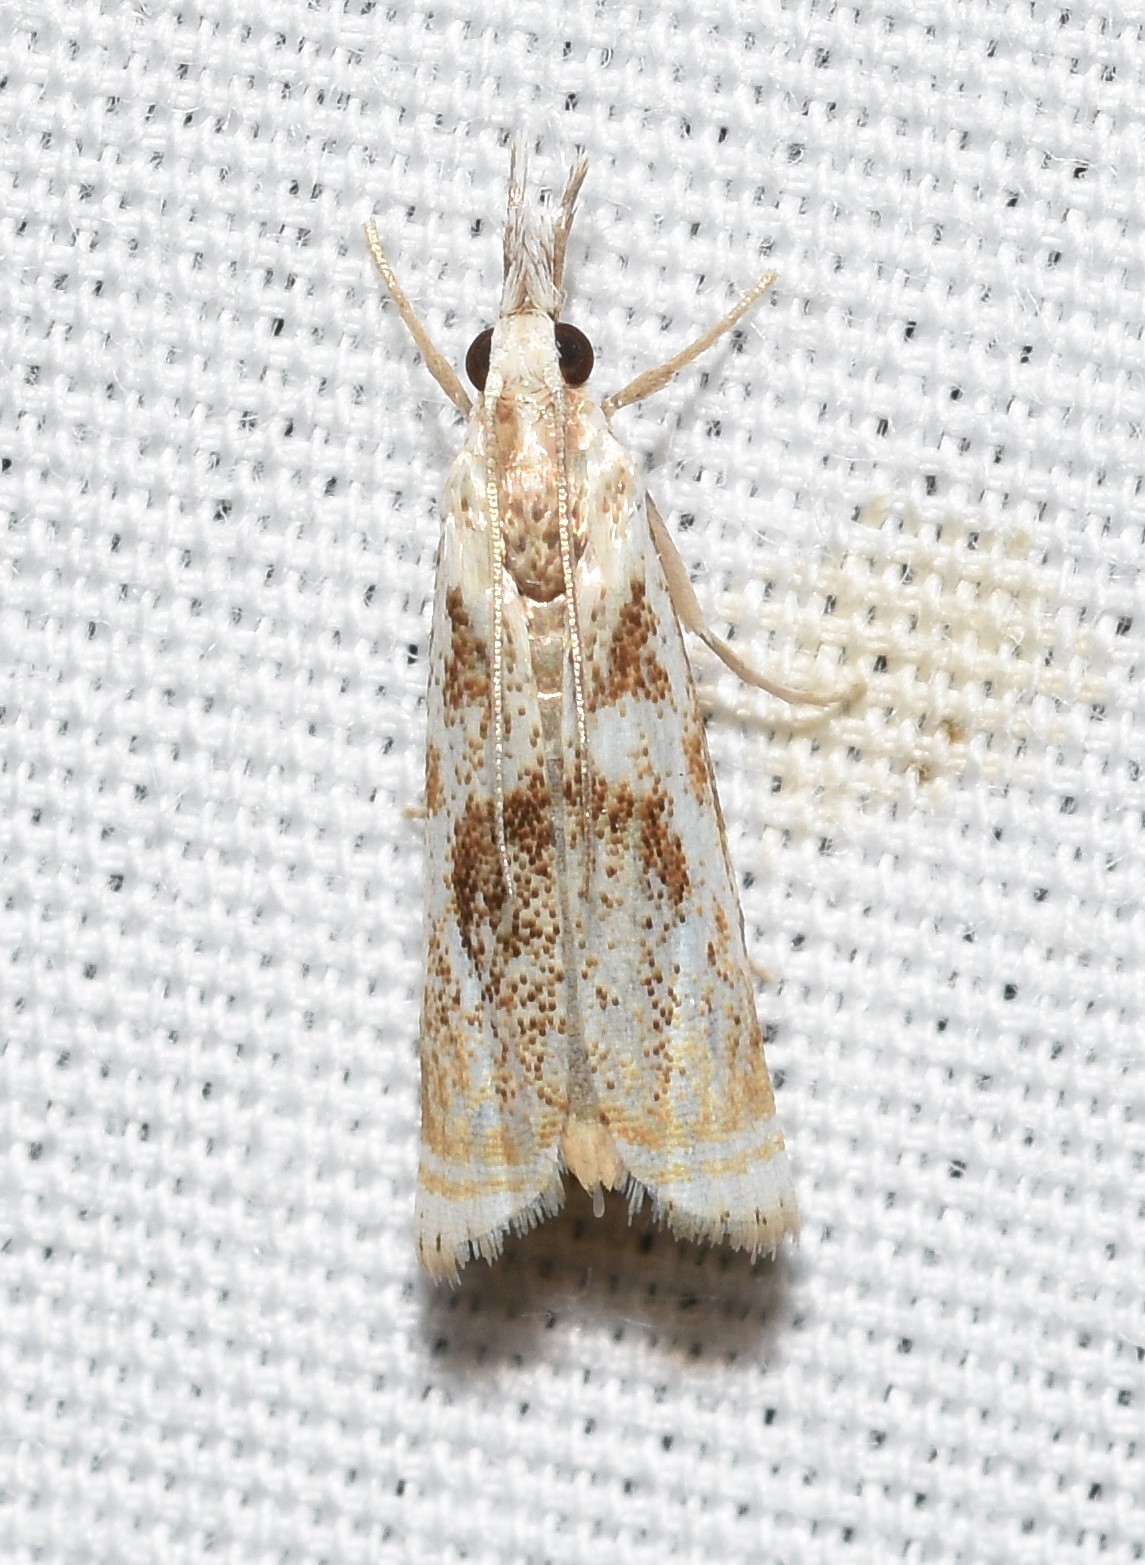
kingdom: Animalia
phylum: Arthropoda
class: Insecta
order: Lepidoptera
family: Crambidae
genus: Microcrambus
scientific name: Microcrambus elegans
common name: Elegant grass-veneer
